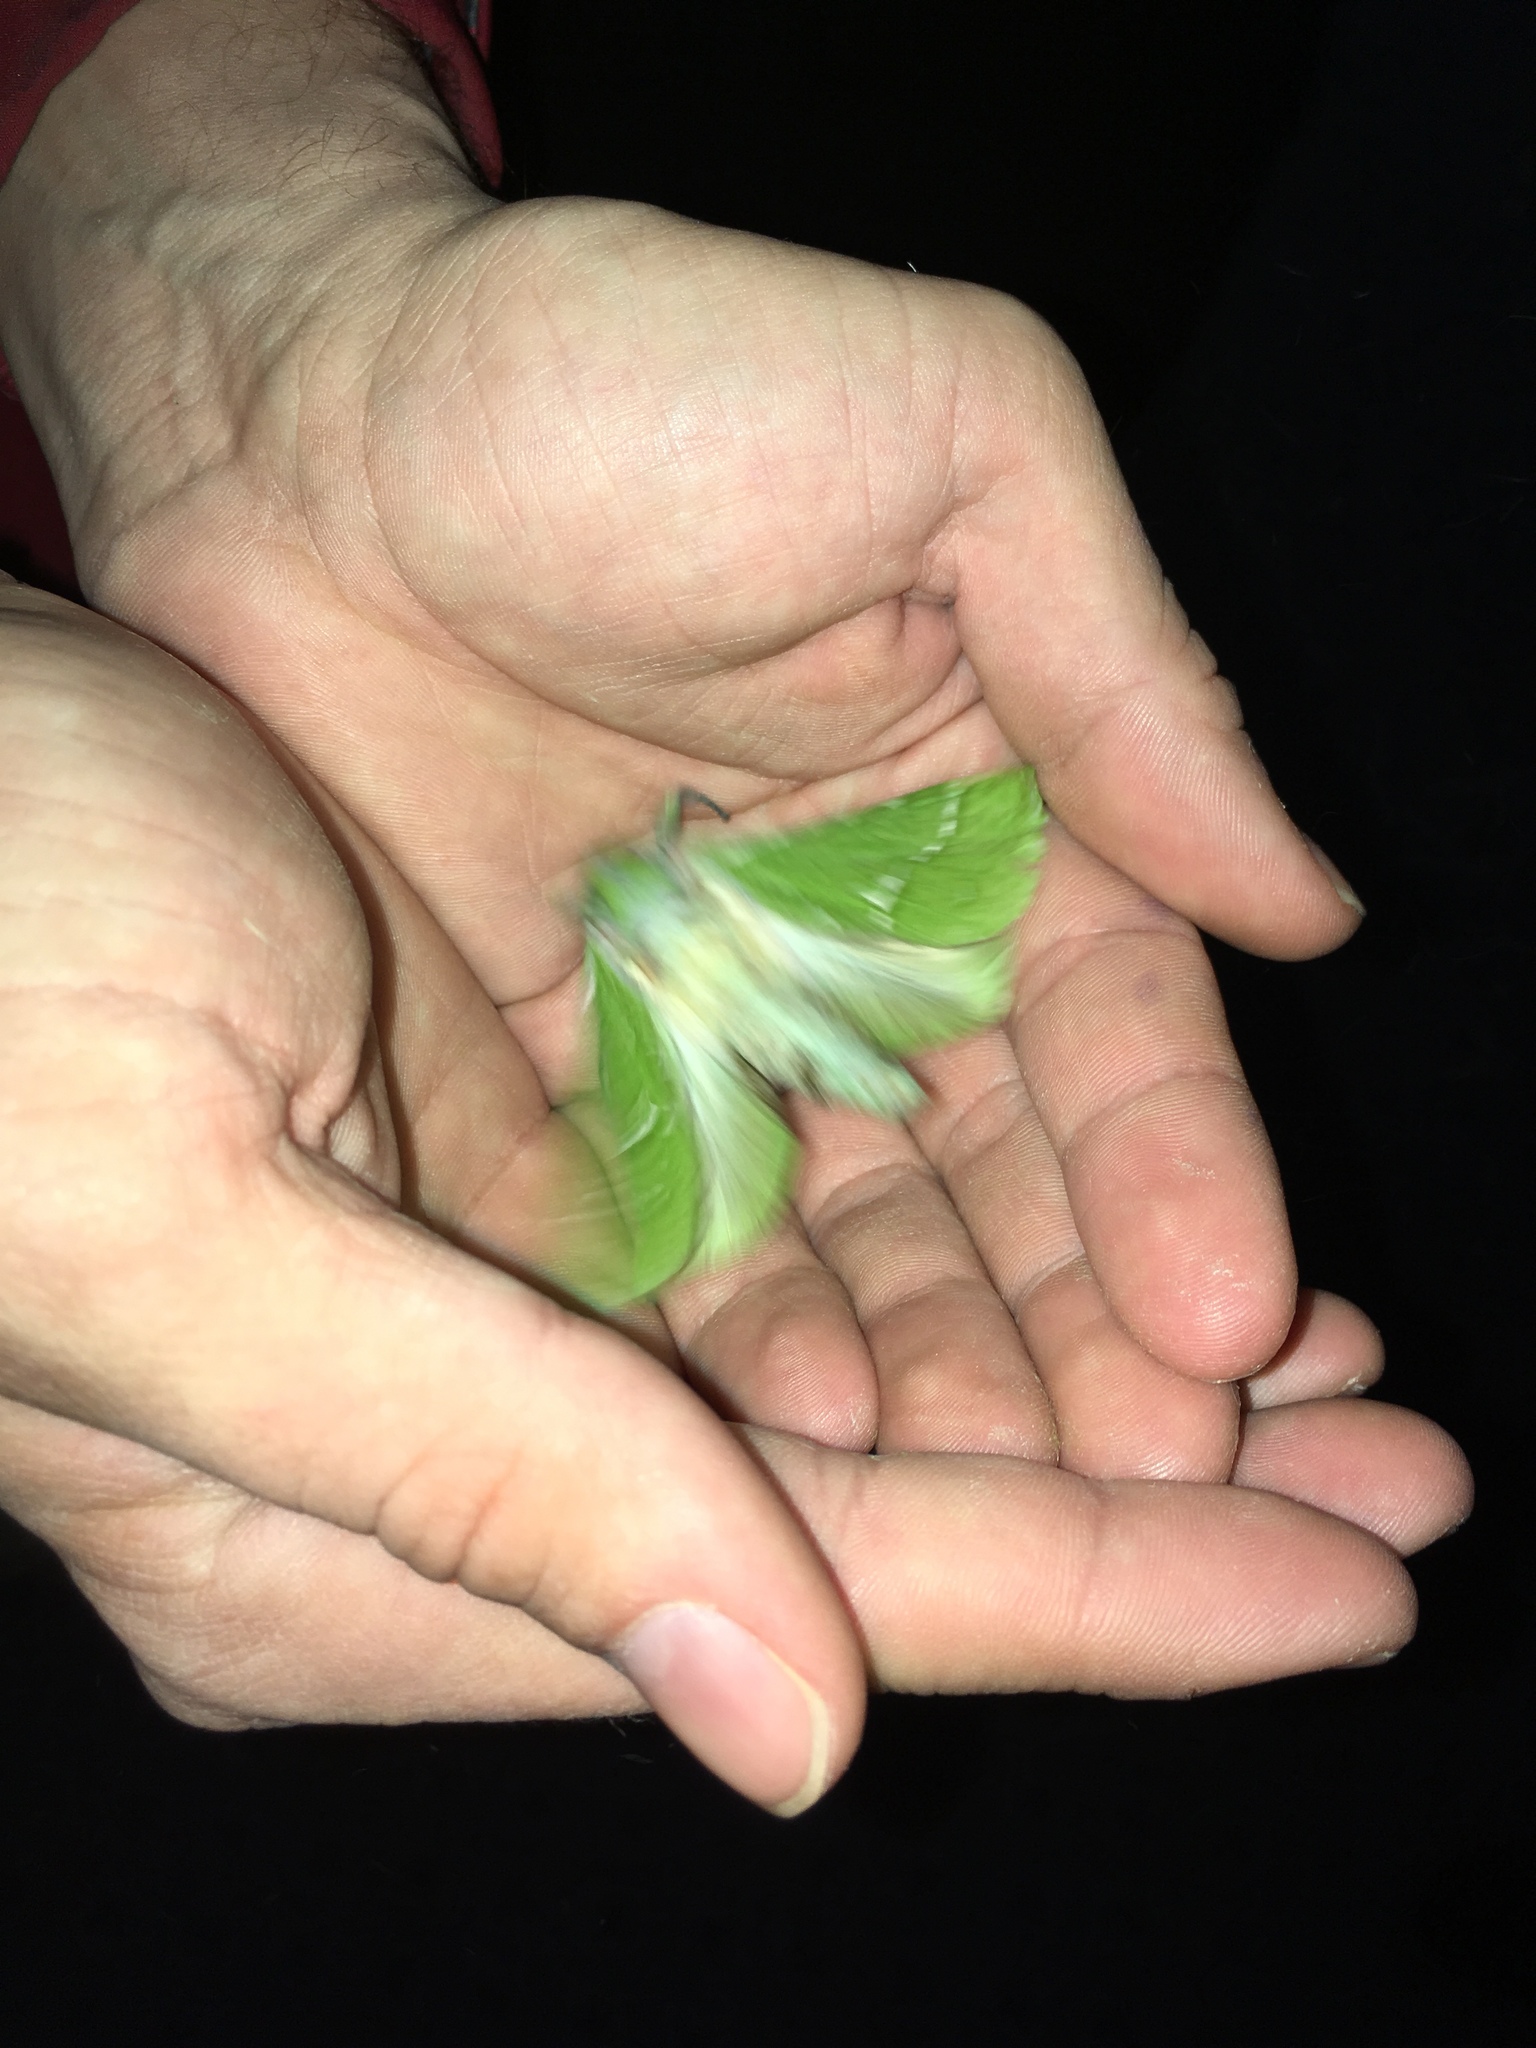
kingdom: Animalia
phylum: Arthropoda
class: Insecta
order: Lepidoptera
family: Hepialidae
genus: Aenetus
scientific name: Aenetus virescens
